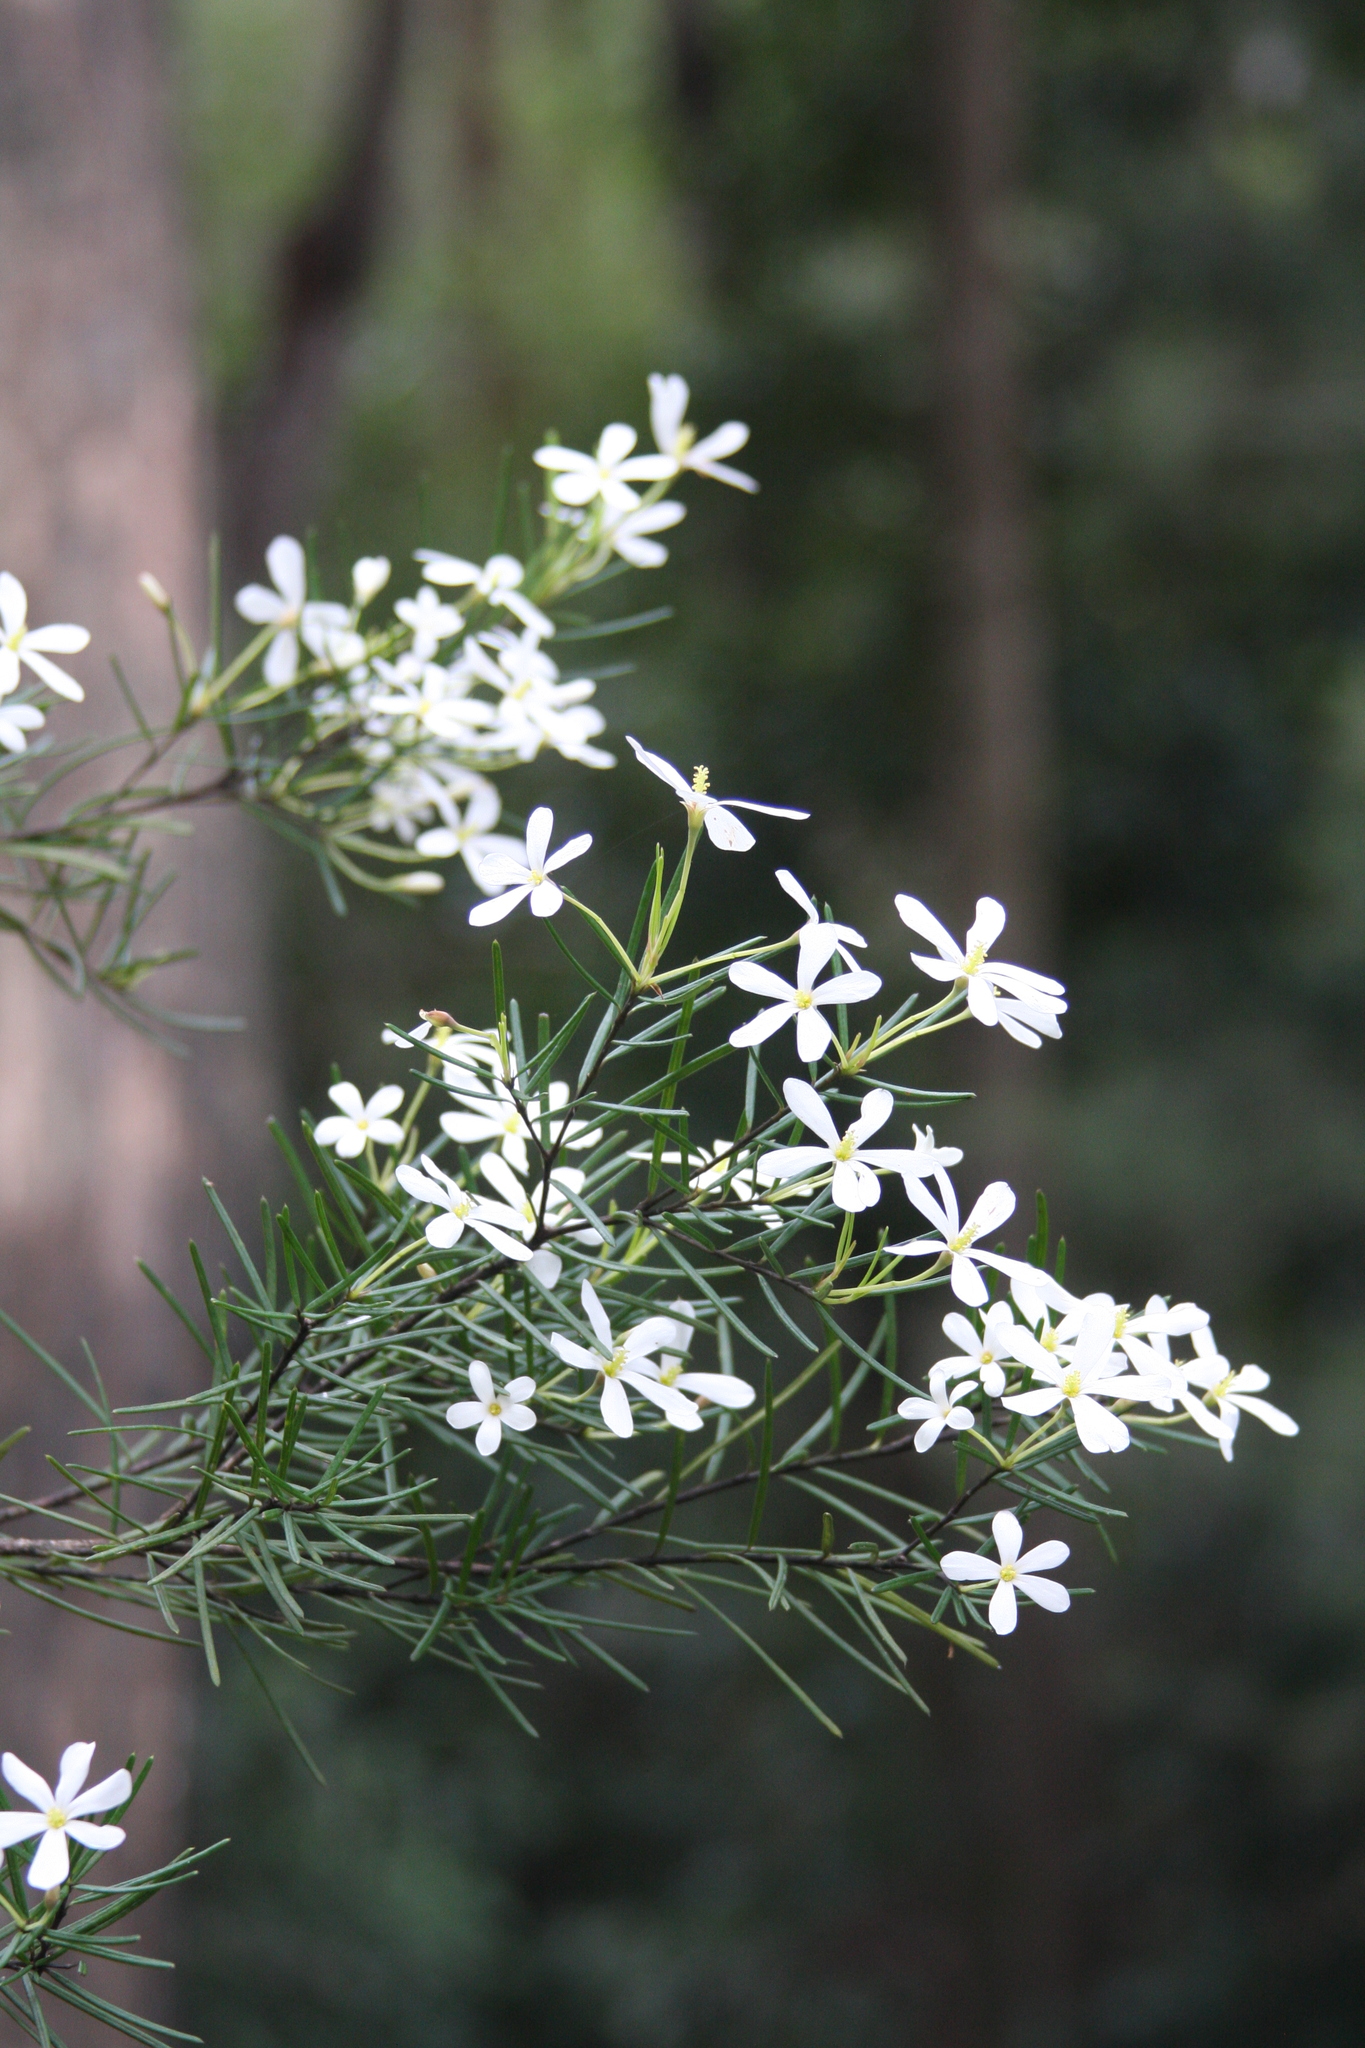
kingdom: Plantae
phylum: Tracheophyta
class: Magnoliopsida
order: Malpighiales
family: Euphorbiaceae
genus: Ricinocarpos
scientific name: Ricinocarpos pinifolius
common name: Weddingbush
